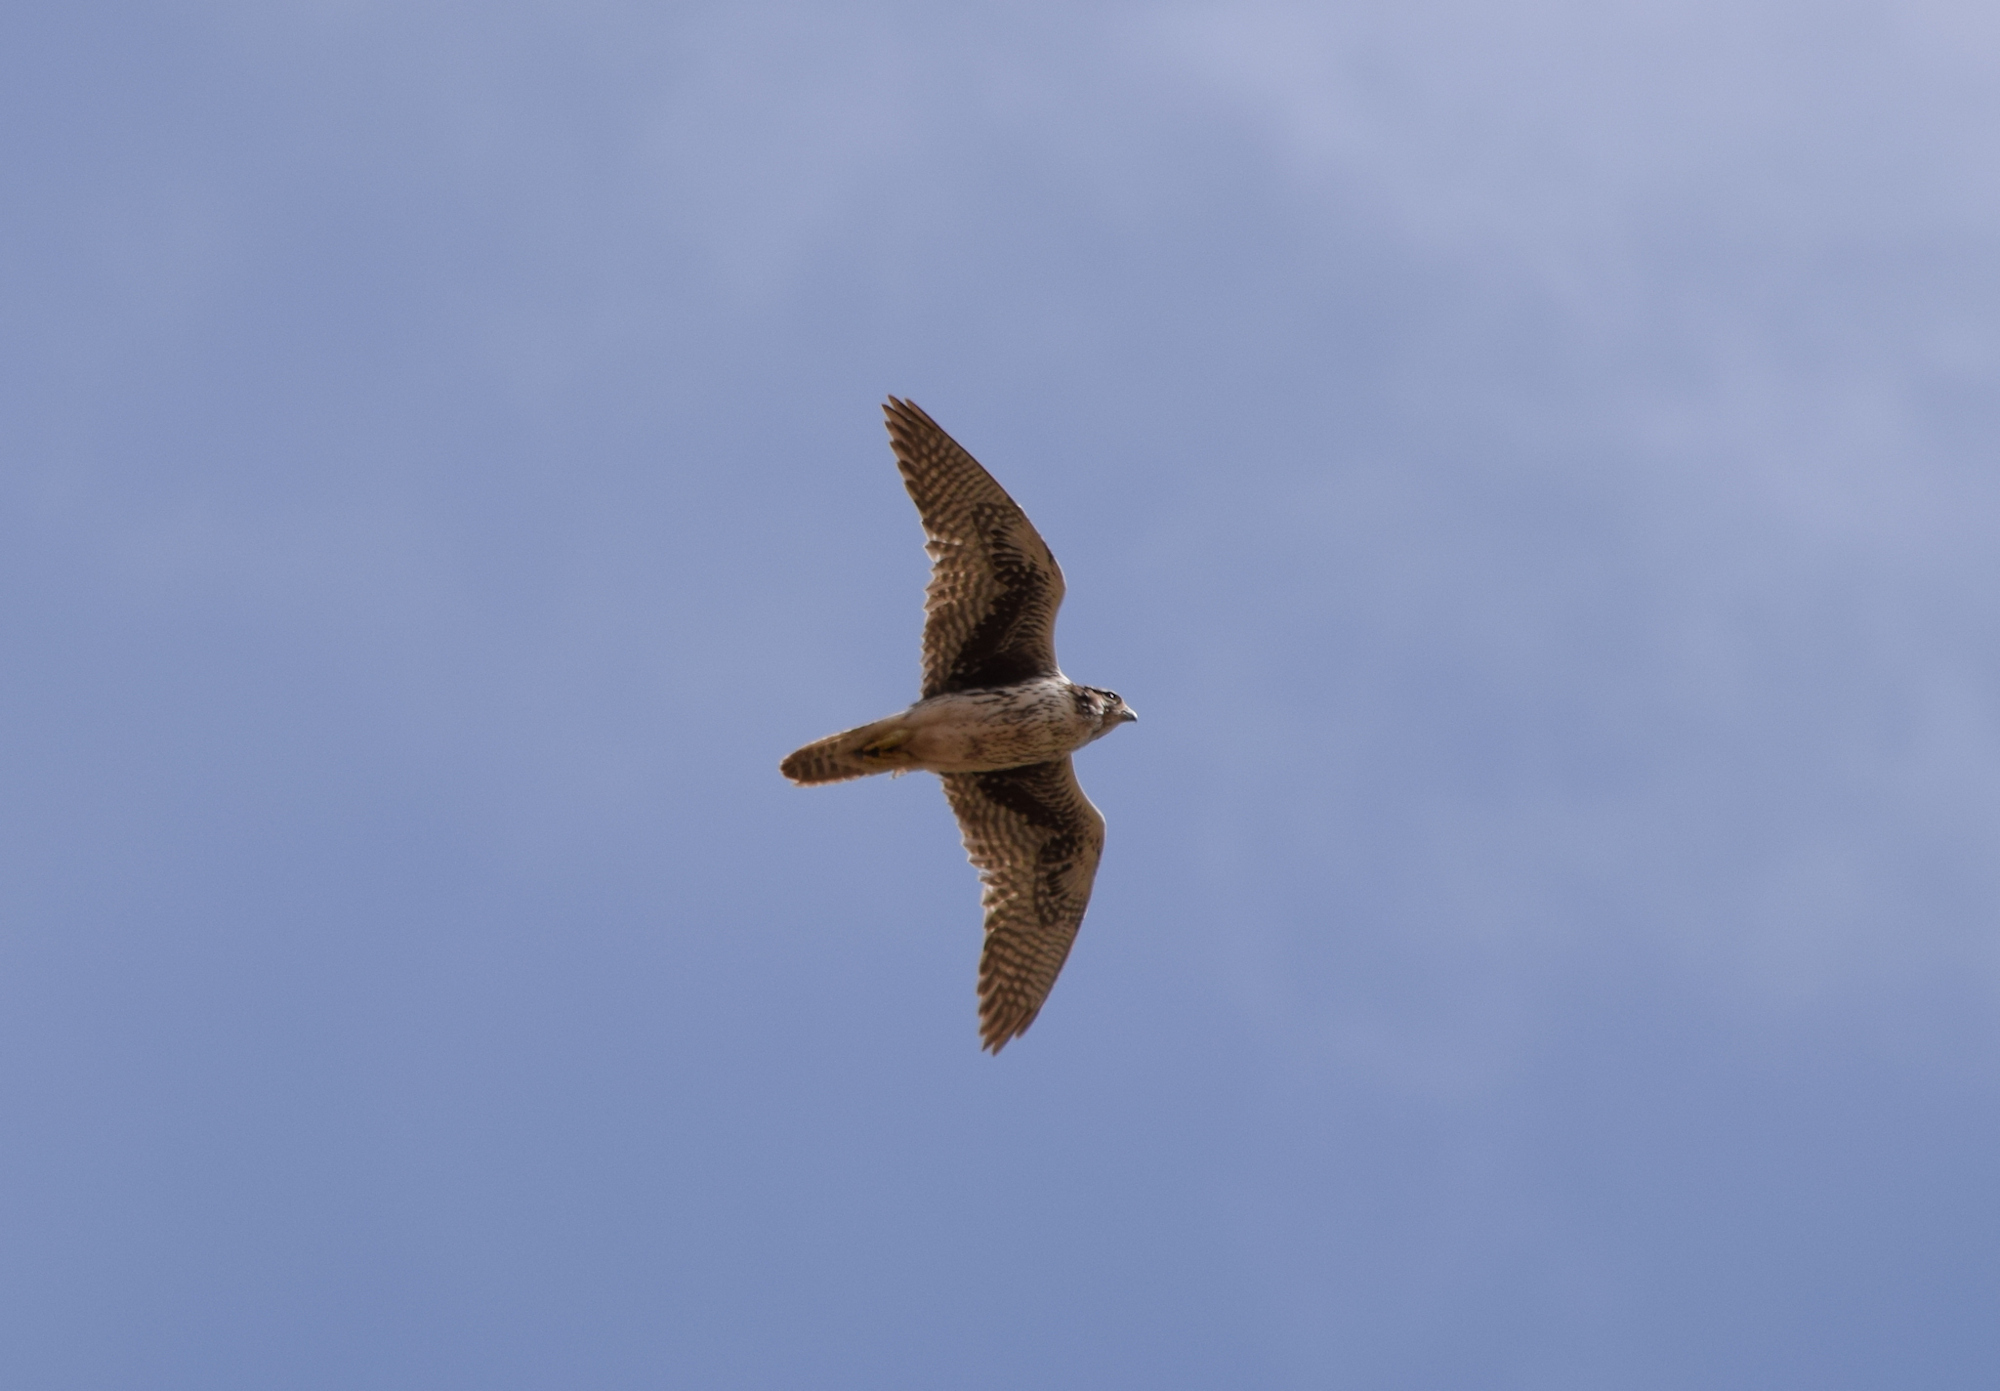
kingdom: Animalia
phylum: Chordata
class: Aves
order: Falconiformes
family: Falconidae
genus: Falco
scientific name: Falco mexicanus
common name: Prairie falcon
